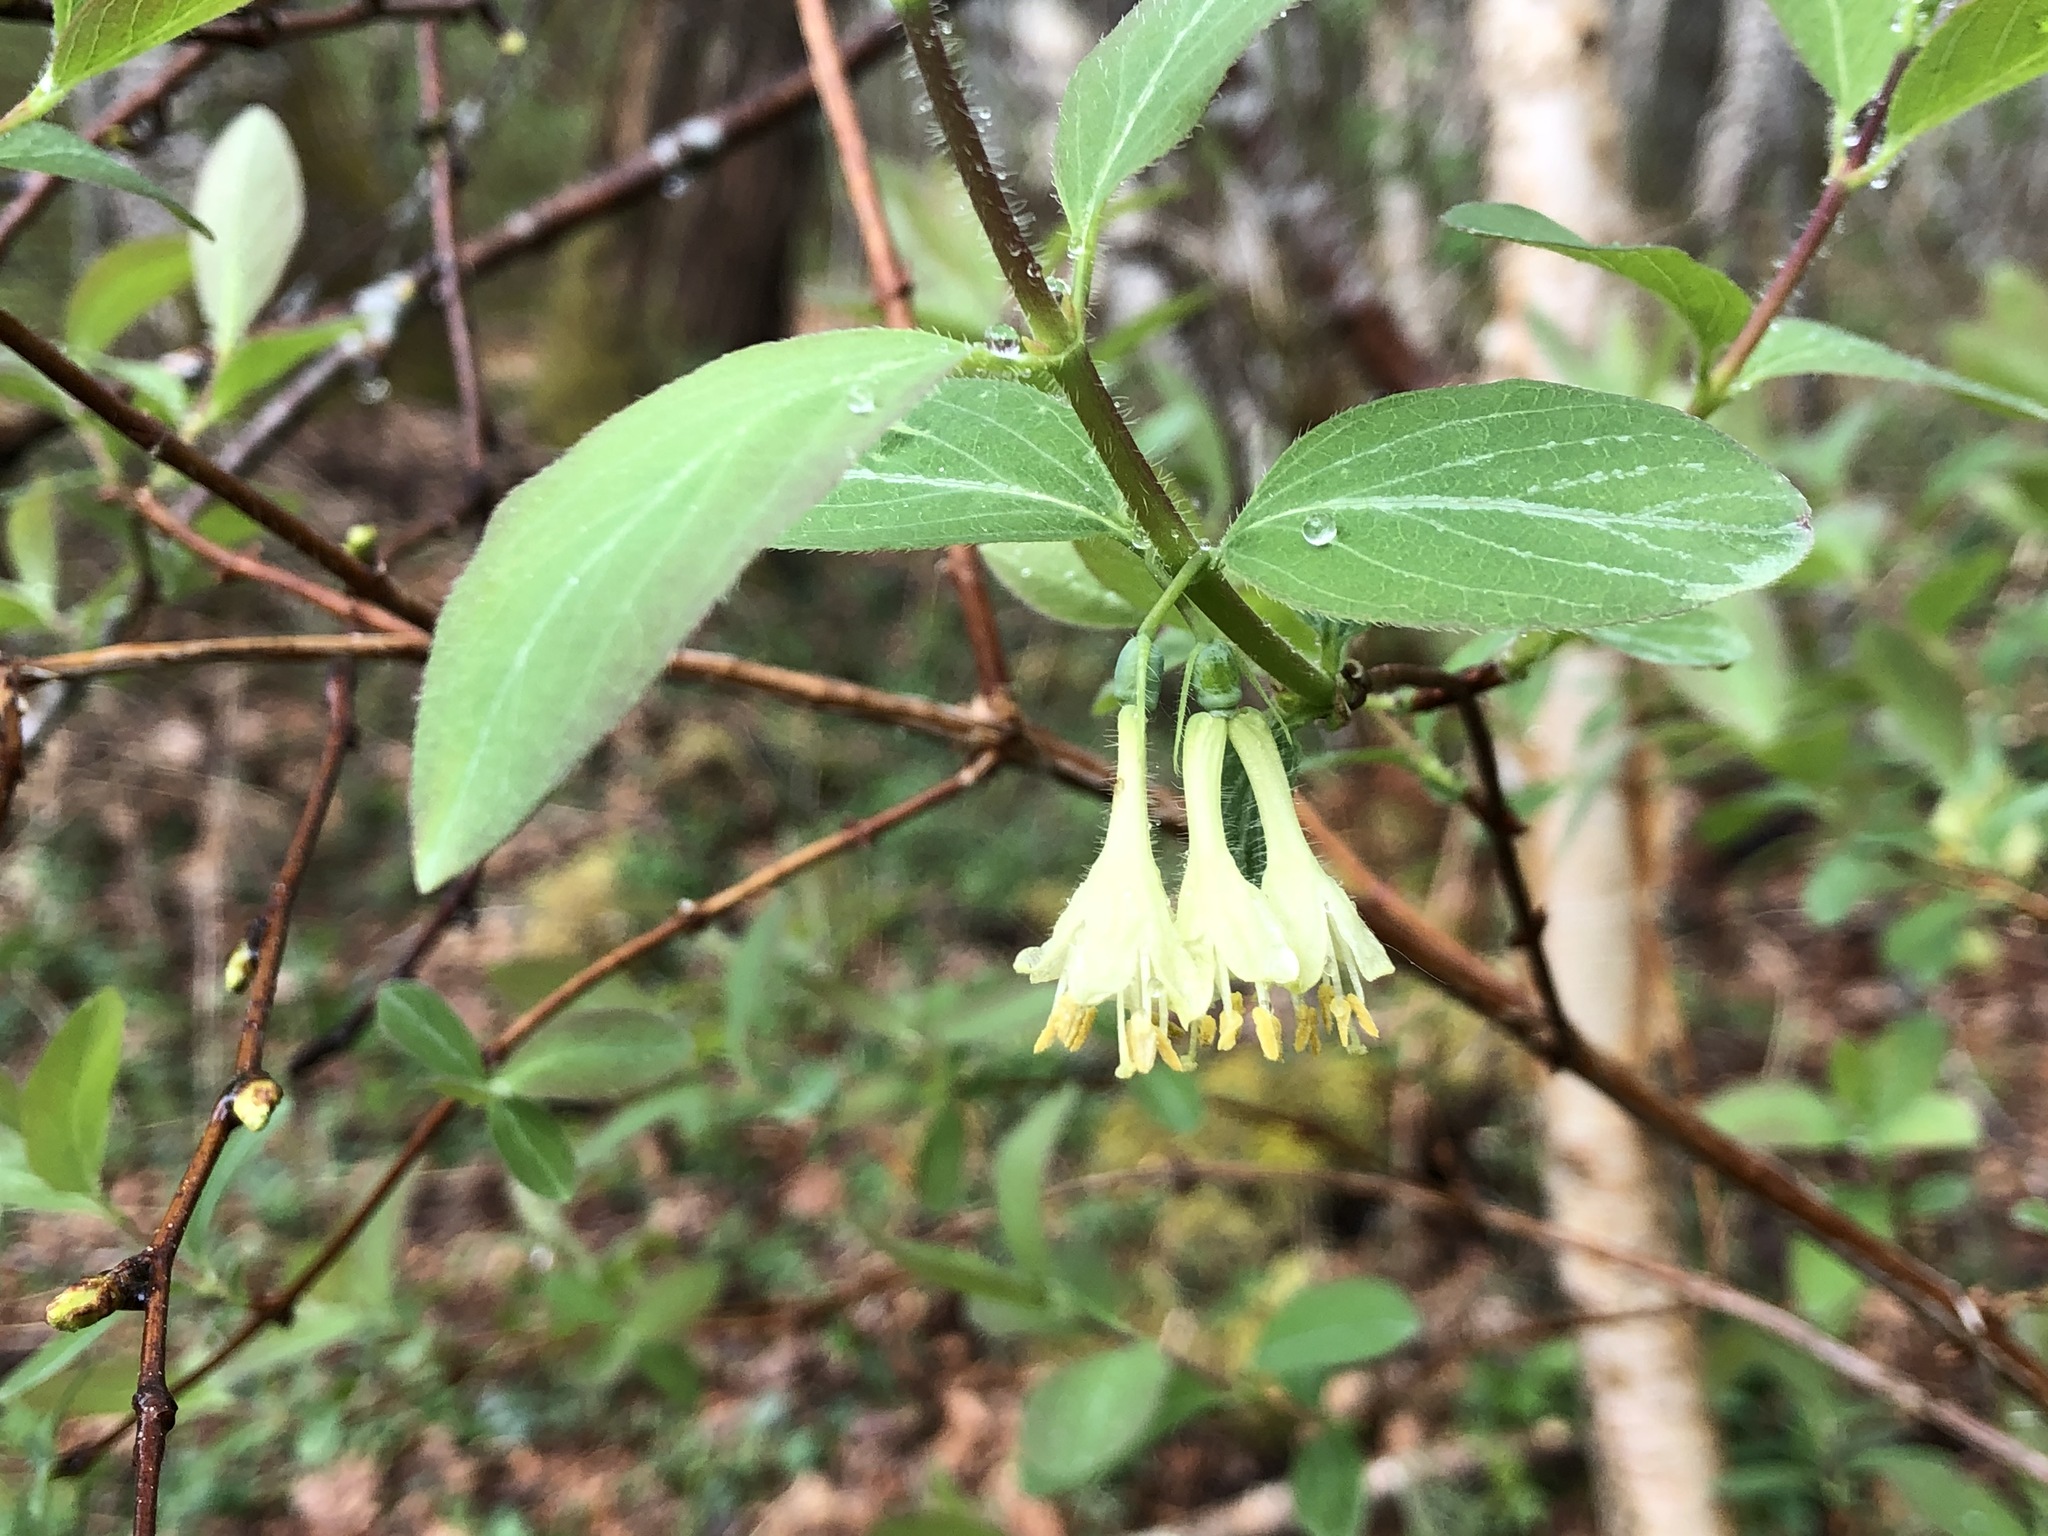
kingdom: Plantae
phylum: Tracheophyta
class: Magnoliopsida
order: Dipsacales
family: Caprifoliaceae
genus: Lonicera
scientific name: Lonicera caerulea
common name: Blue honeysuckle
